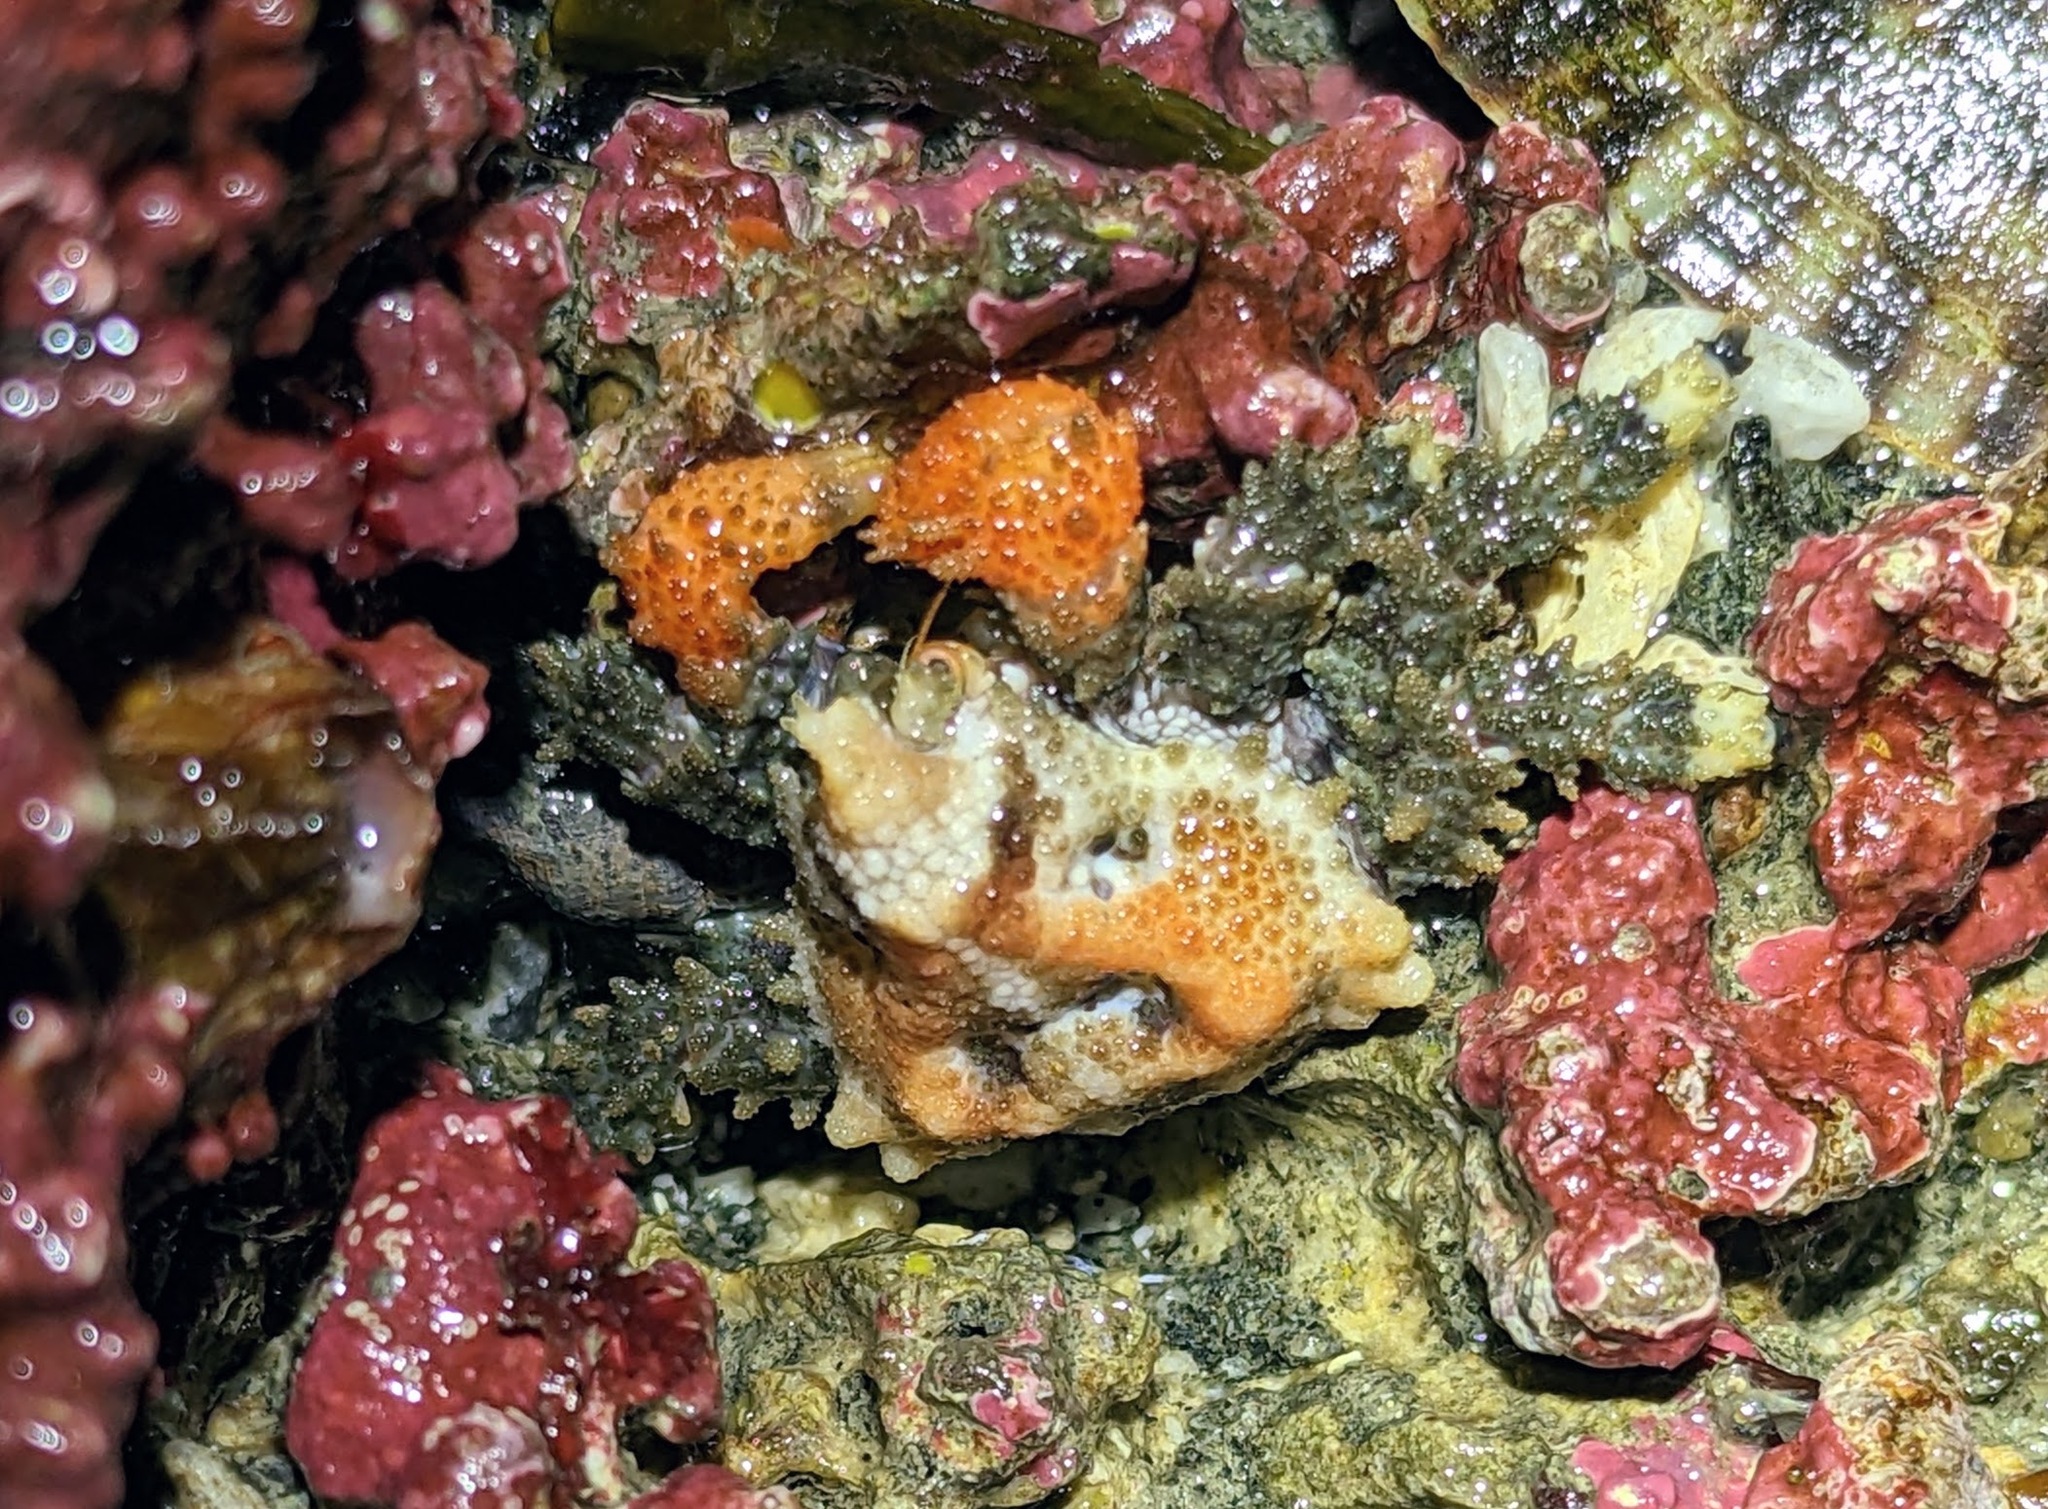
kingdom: Animalia
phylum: Arthropoda
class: Malacostraca
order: Decapoda
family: Lithodidae
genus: Phyllolithodes
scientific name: Phyllolithodes papillosus
